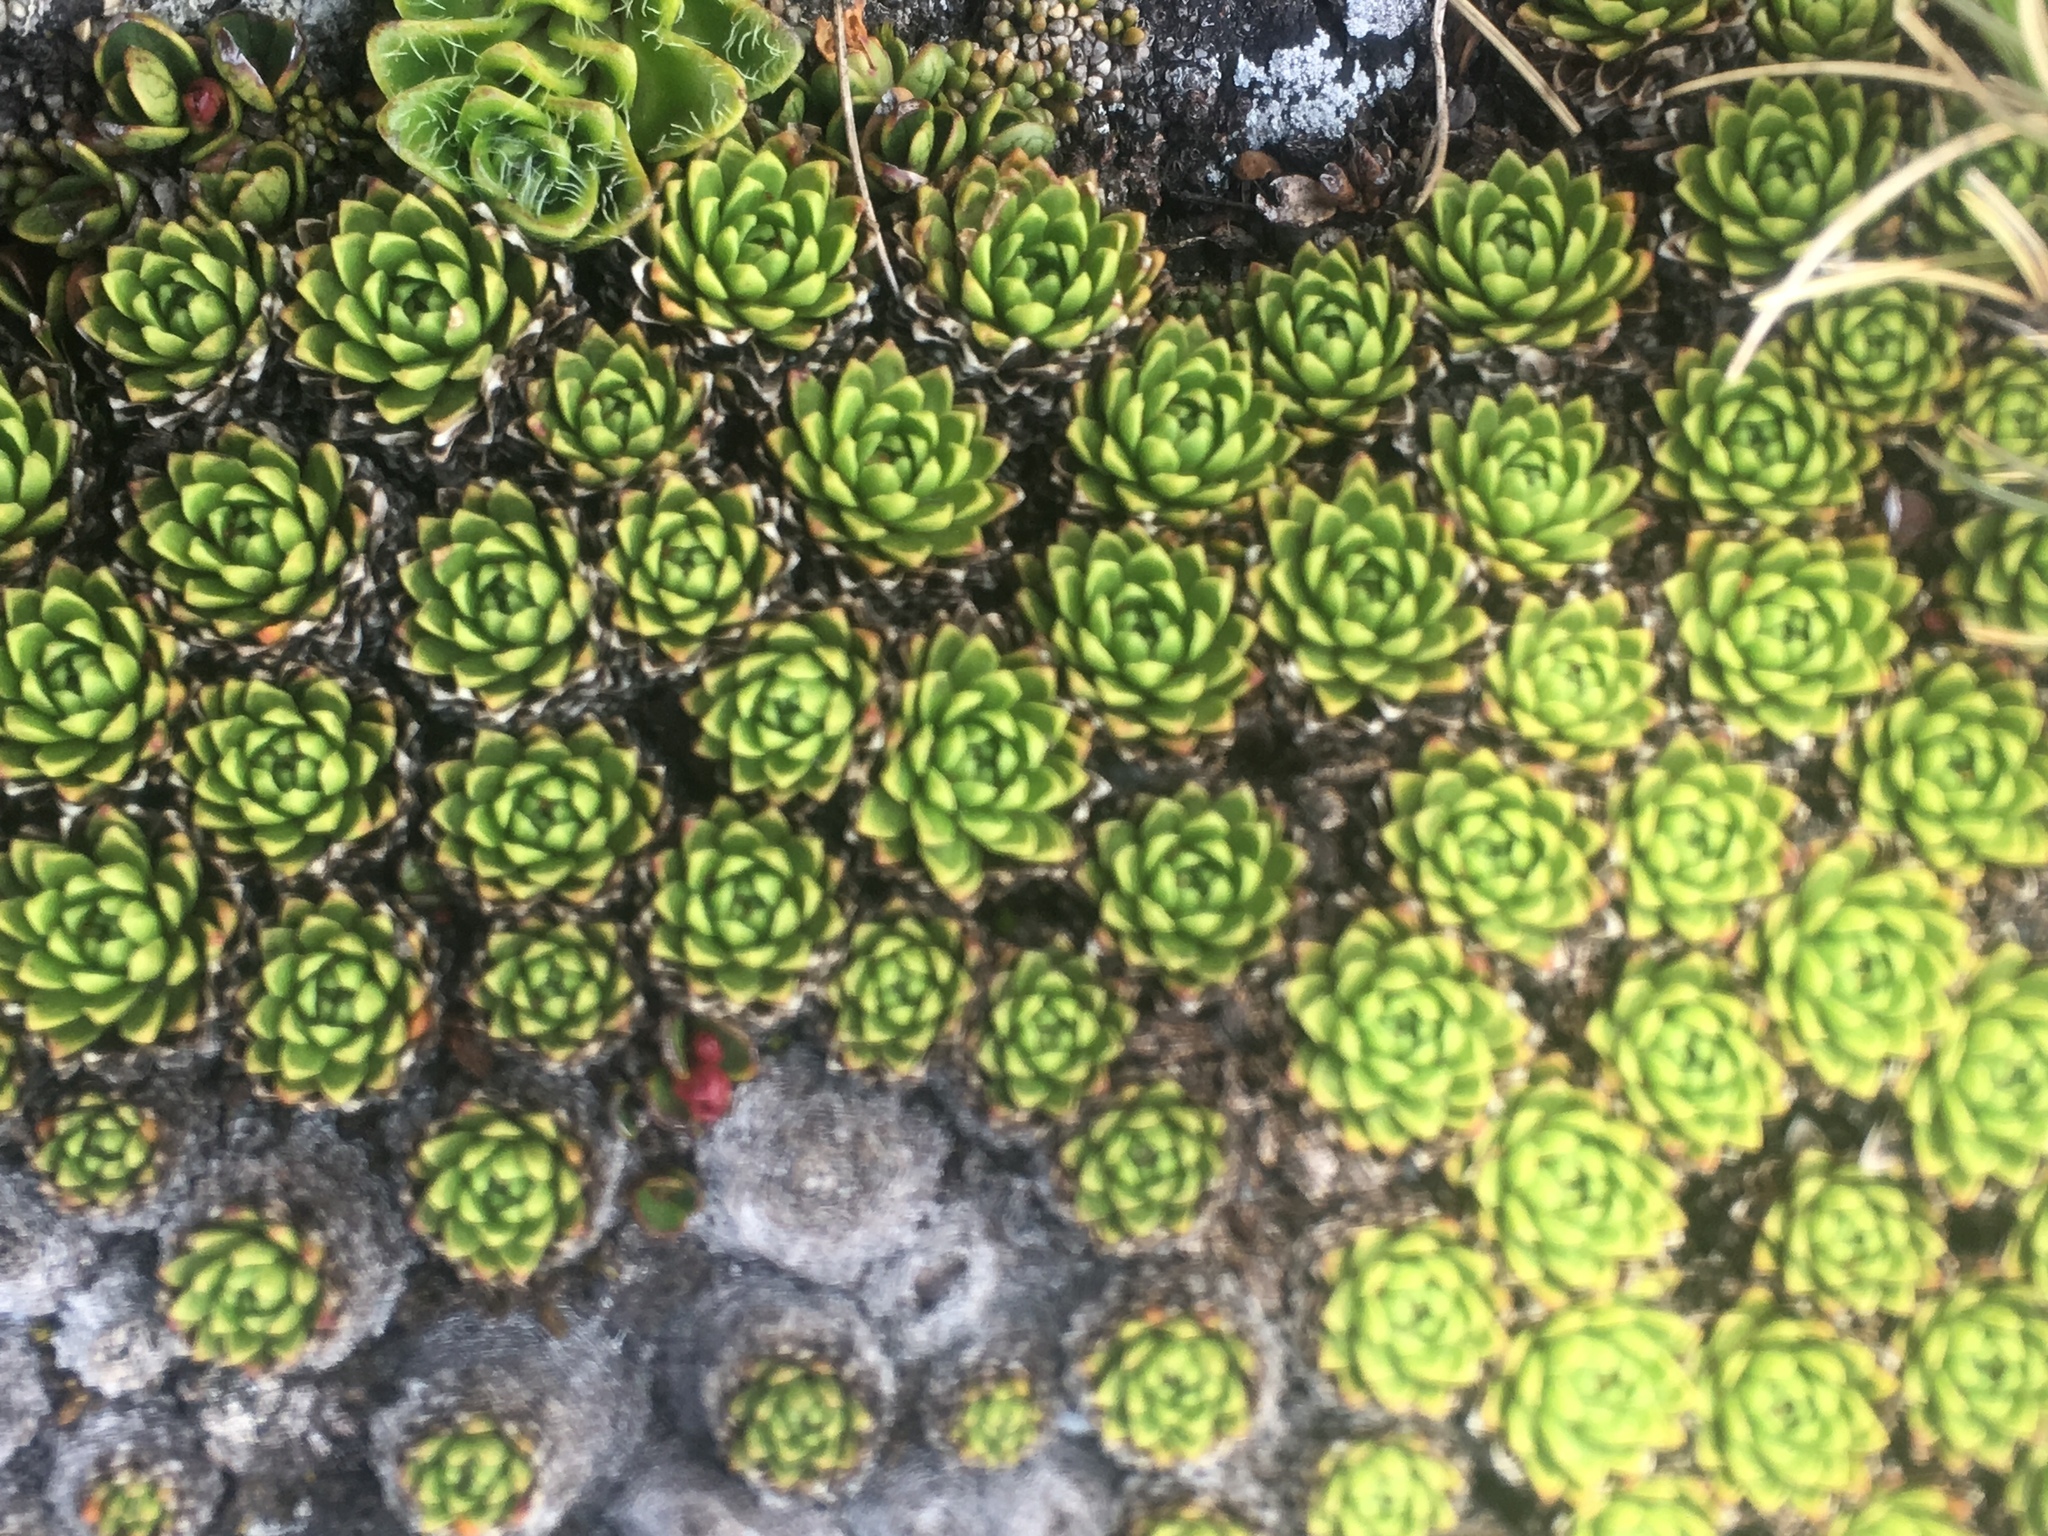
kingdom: Plantae
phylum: Tracheophyta
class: Polypodiopsida
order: Polypodiales
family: Dryopteridaceae
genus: Polystichum
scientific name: Polystichum cystostegia
